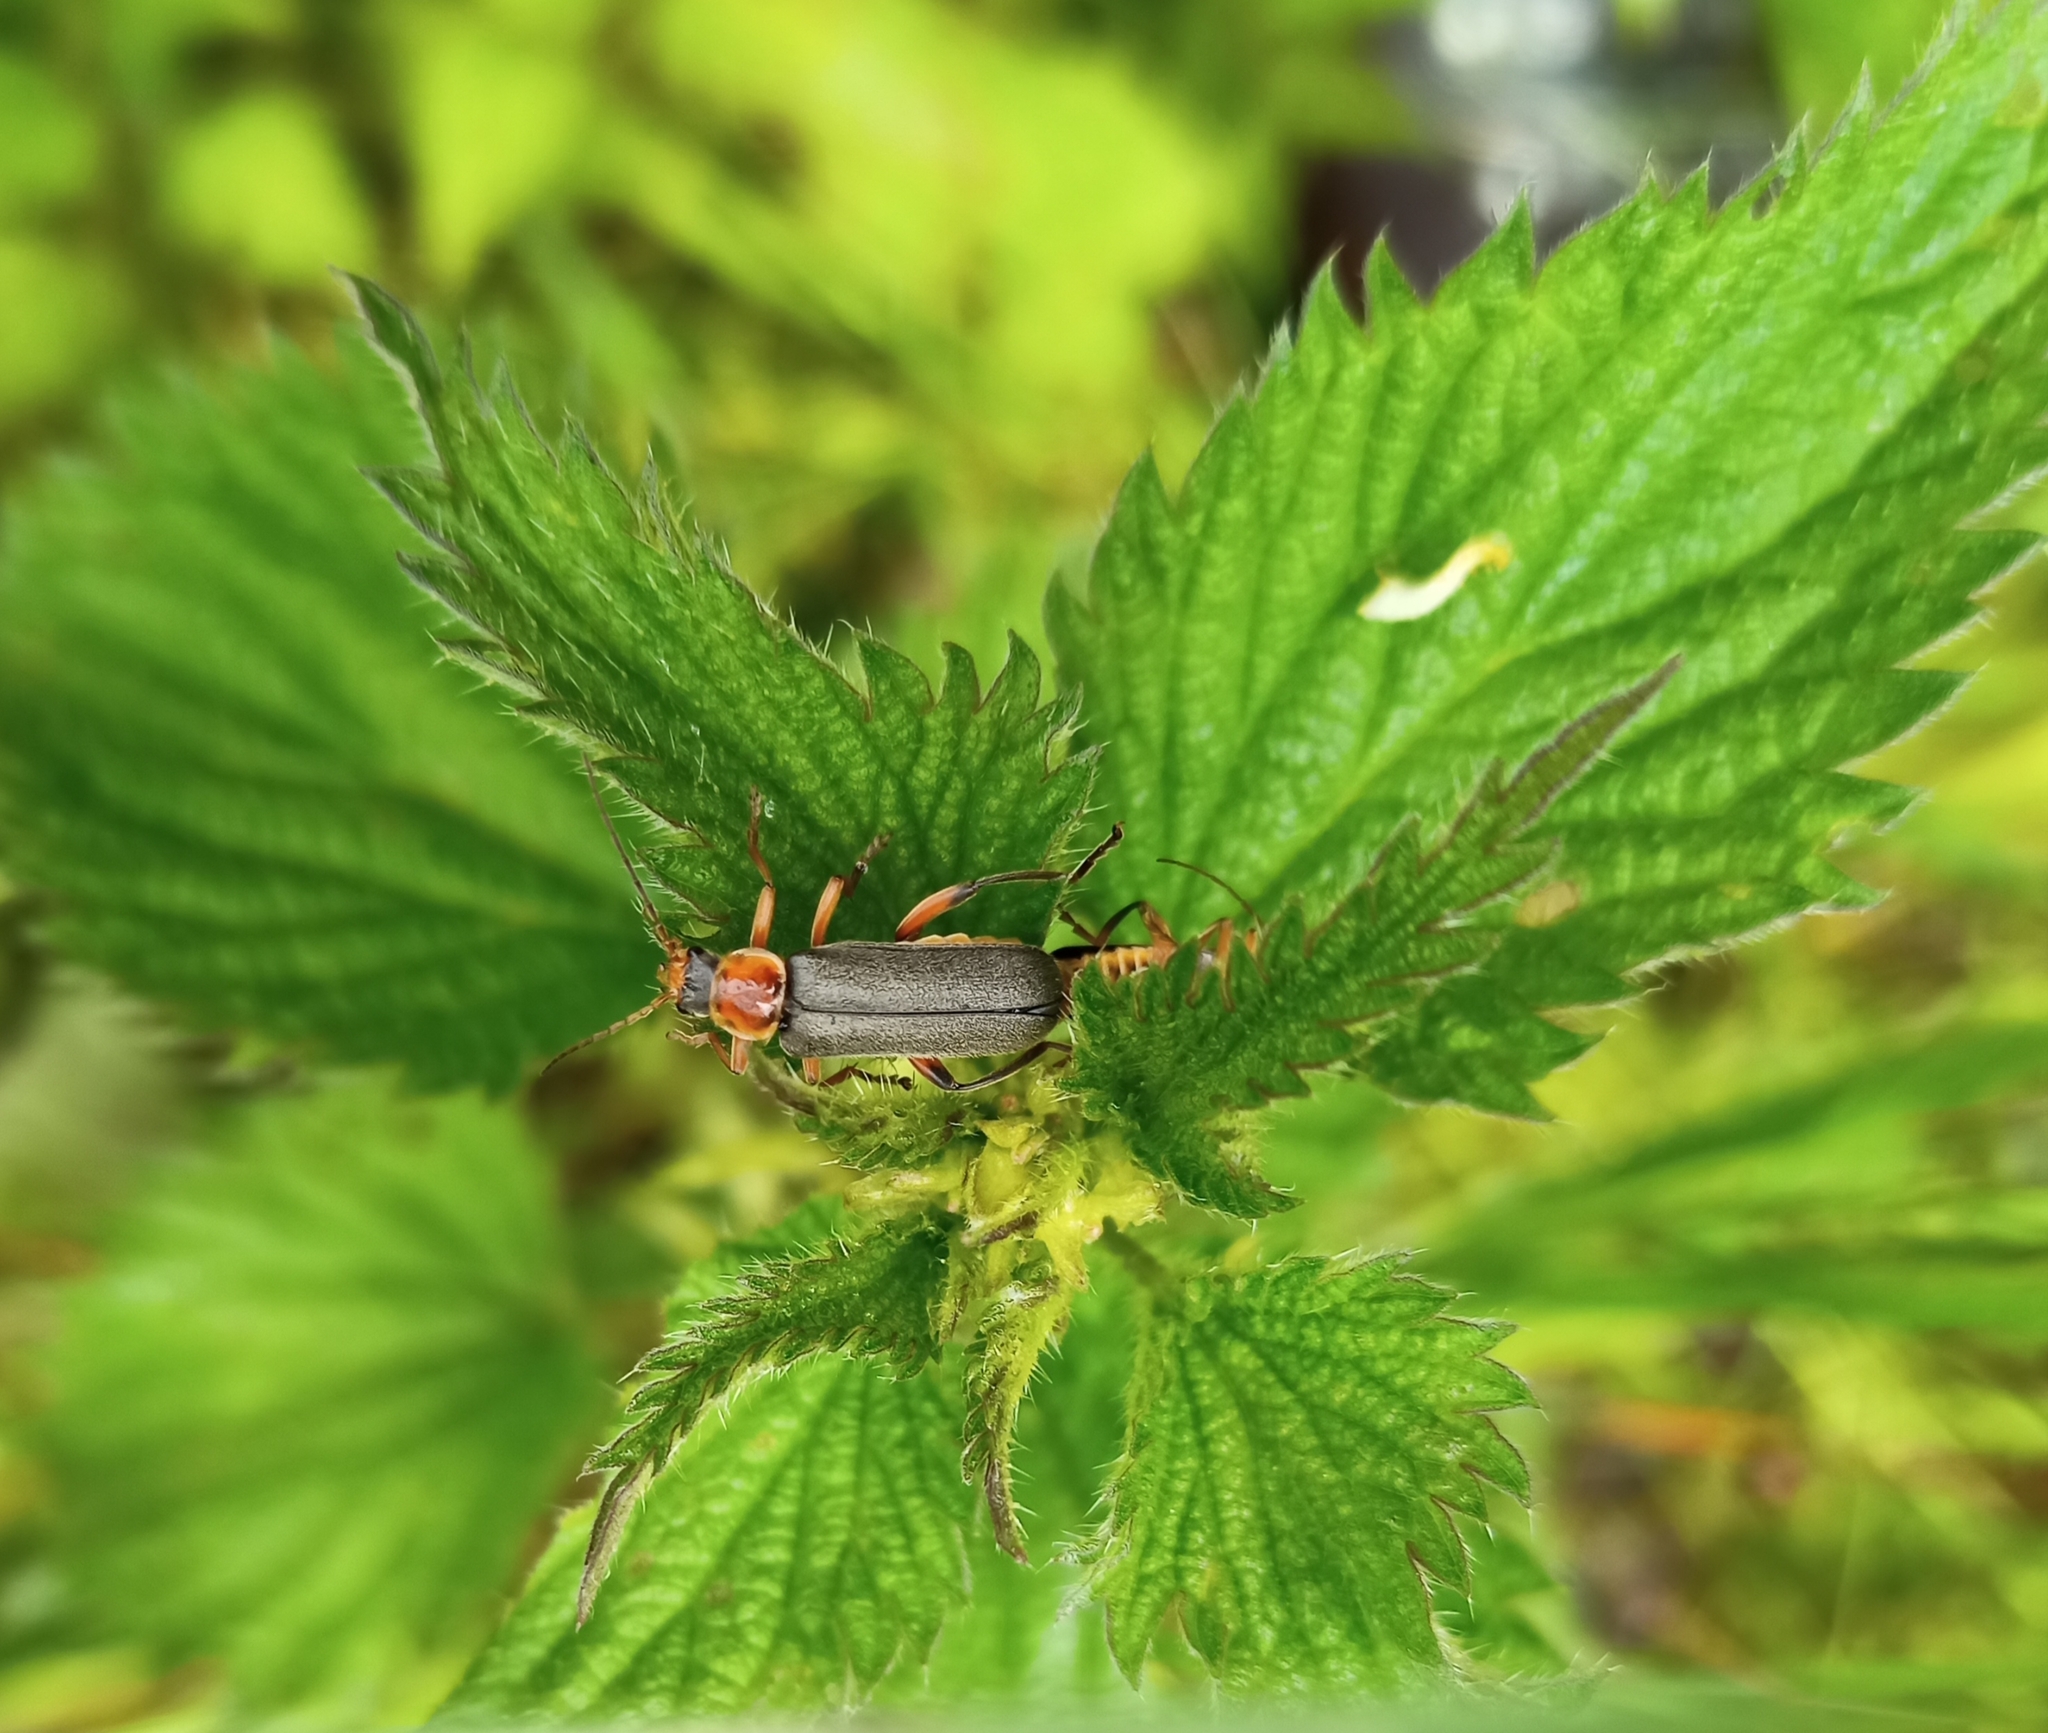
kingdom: Animalia
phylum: Arthropoda
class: Insecta
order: Coleoptera
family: Cantharidae
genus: Cantharis
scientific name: Cantharis nigricans
